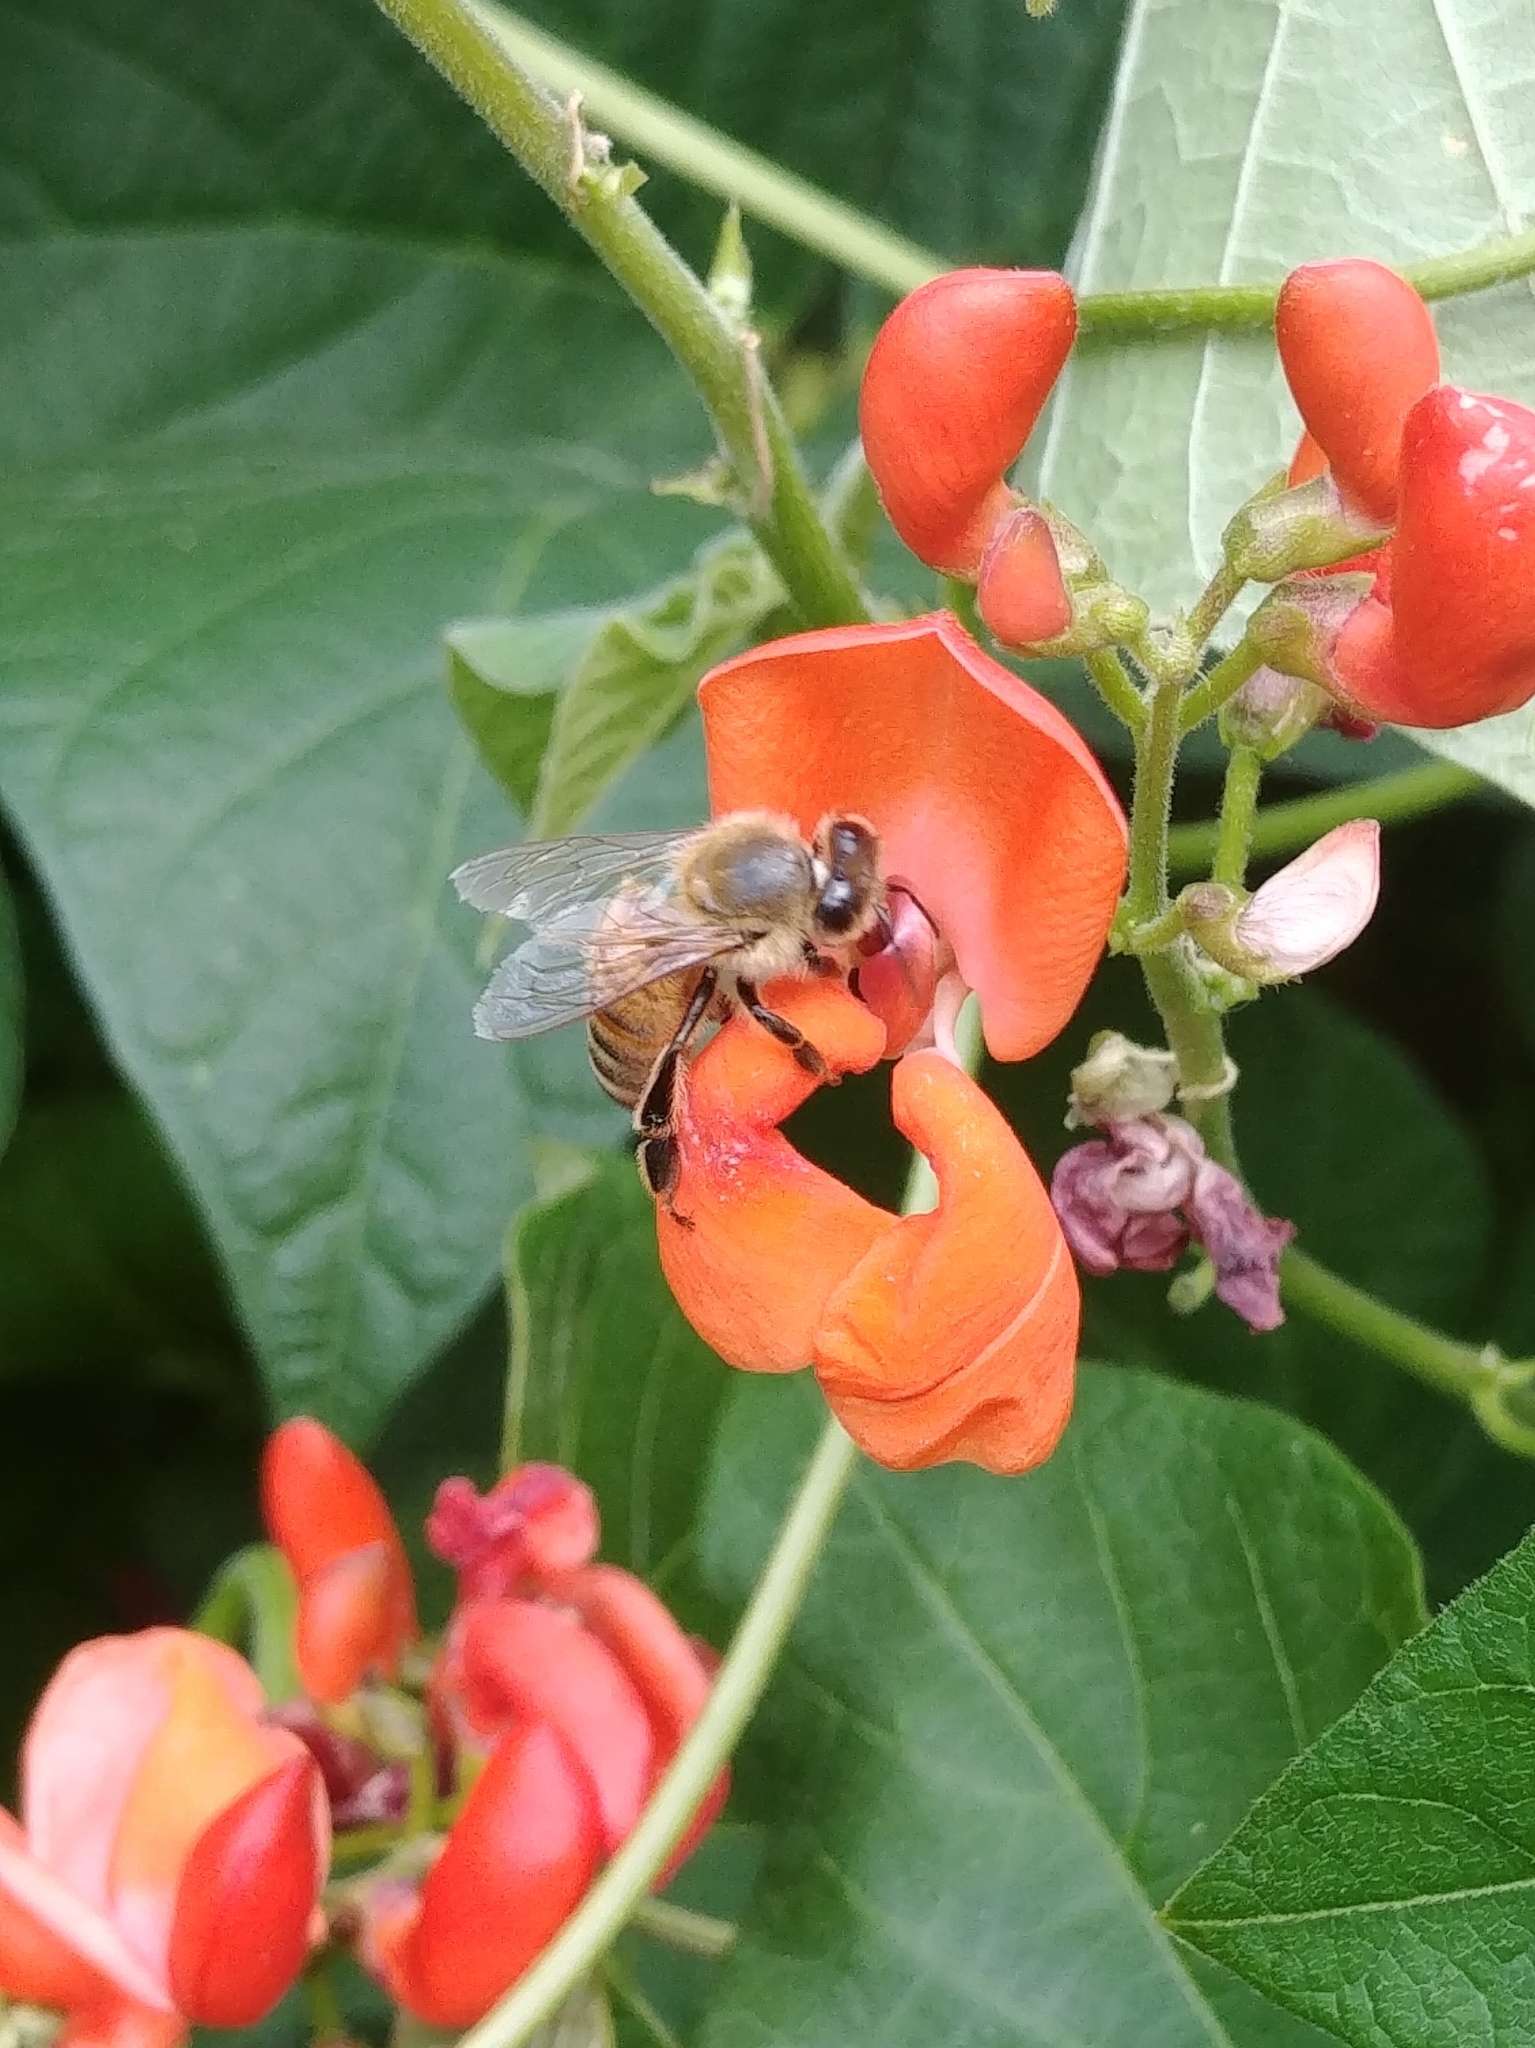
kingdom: Animalia
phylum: Arthropoda
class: Insecta
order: Hymenoptera
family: Apidae
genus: Apis
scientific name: Apis mellifera
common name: Honey bee
